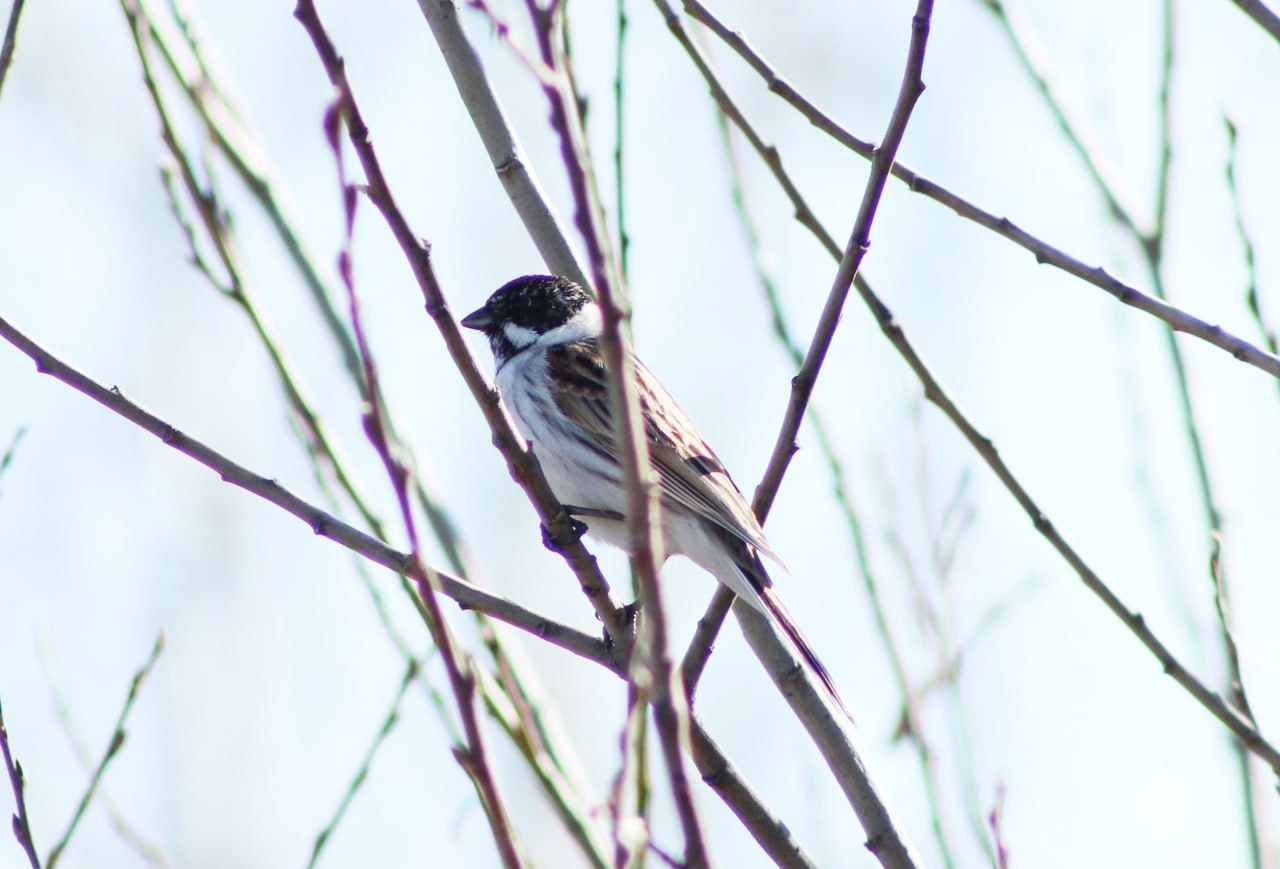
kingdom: Animalia
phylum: Chordata
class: Aves
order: Passeriformes
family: Emberizidae
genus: Emberiza
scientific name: Emberiza schoeniclus
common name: Reed bunting
